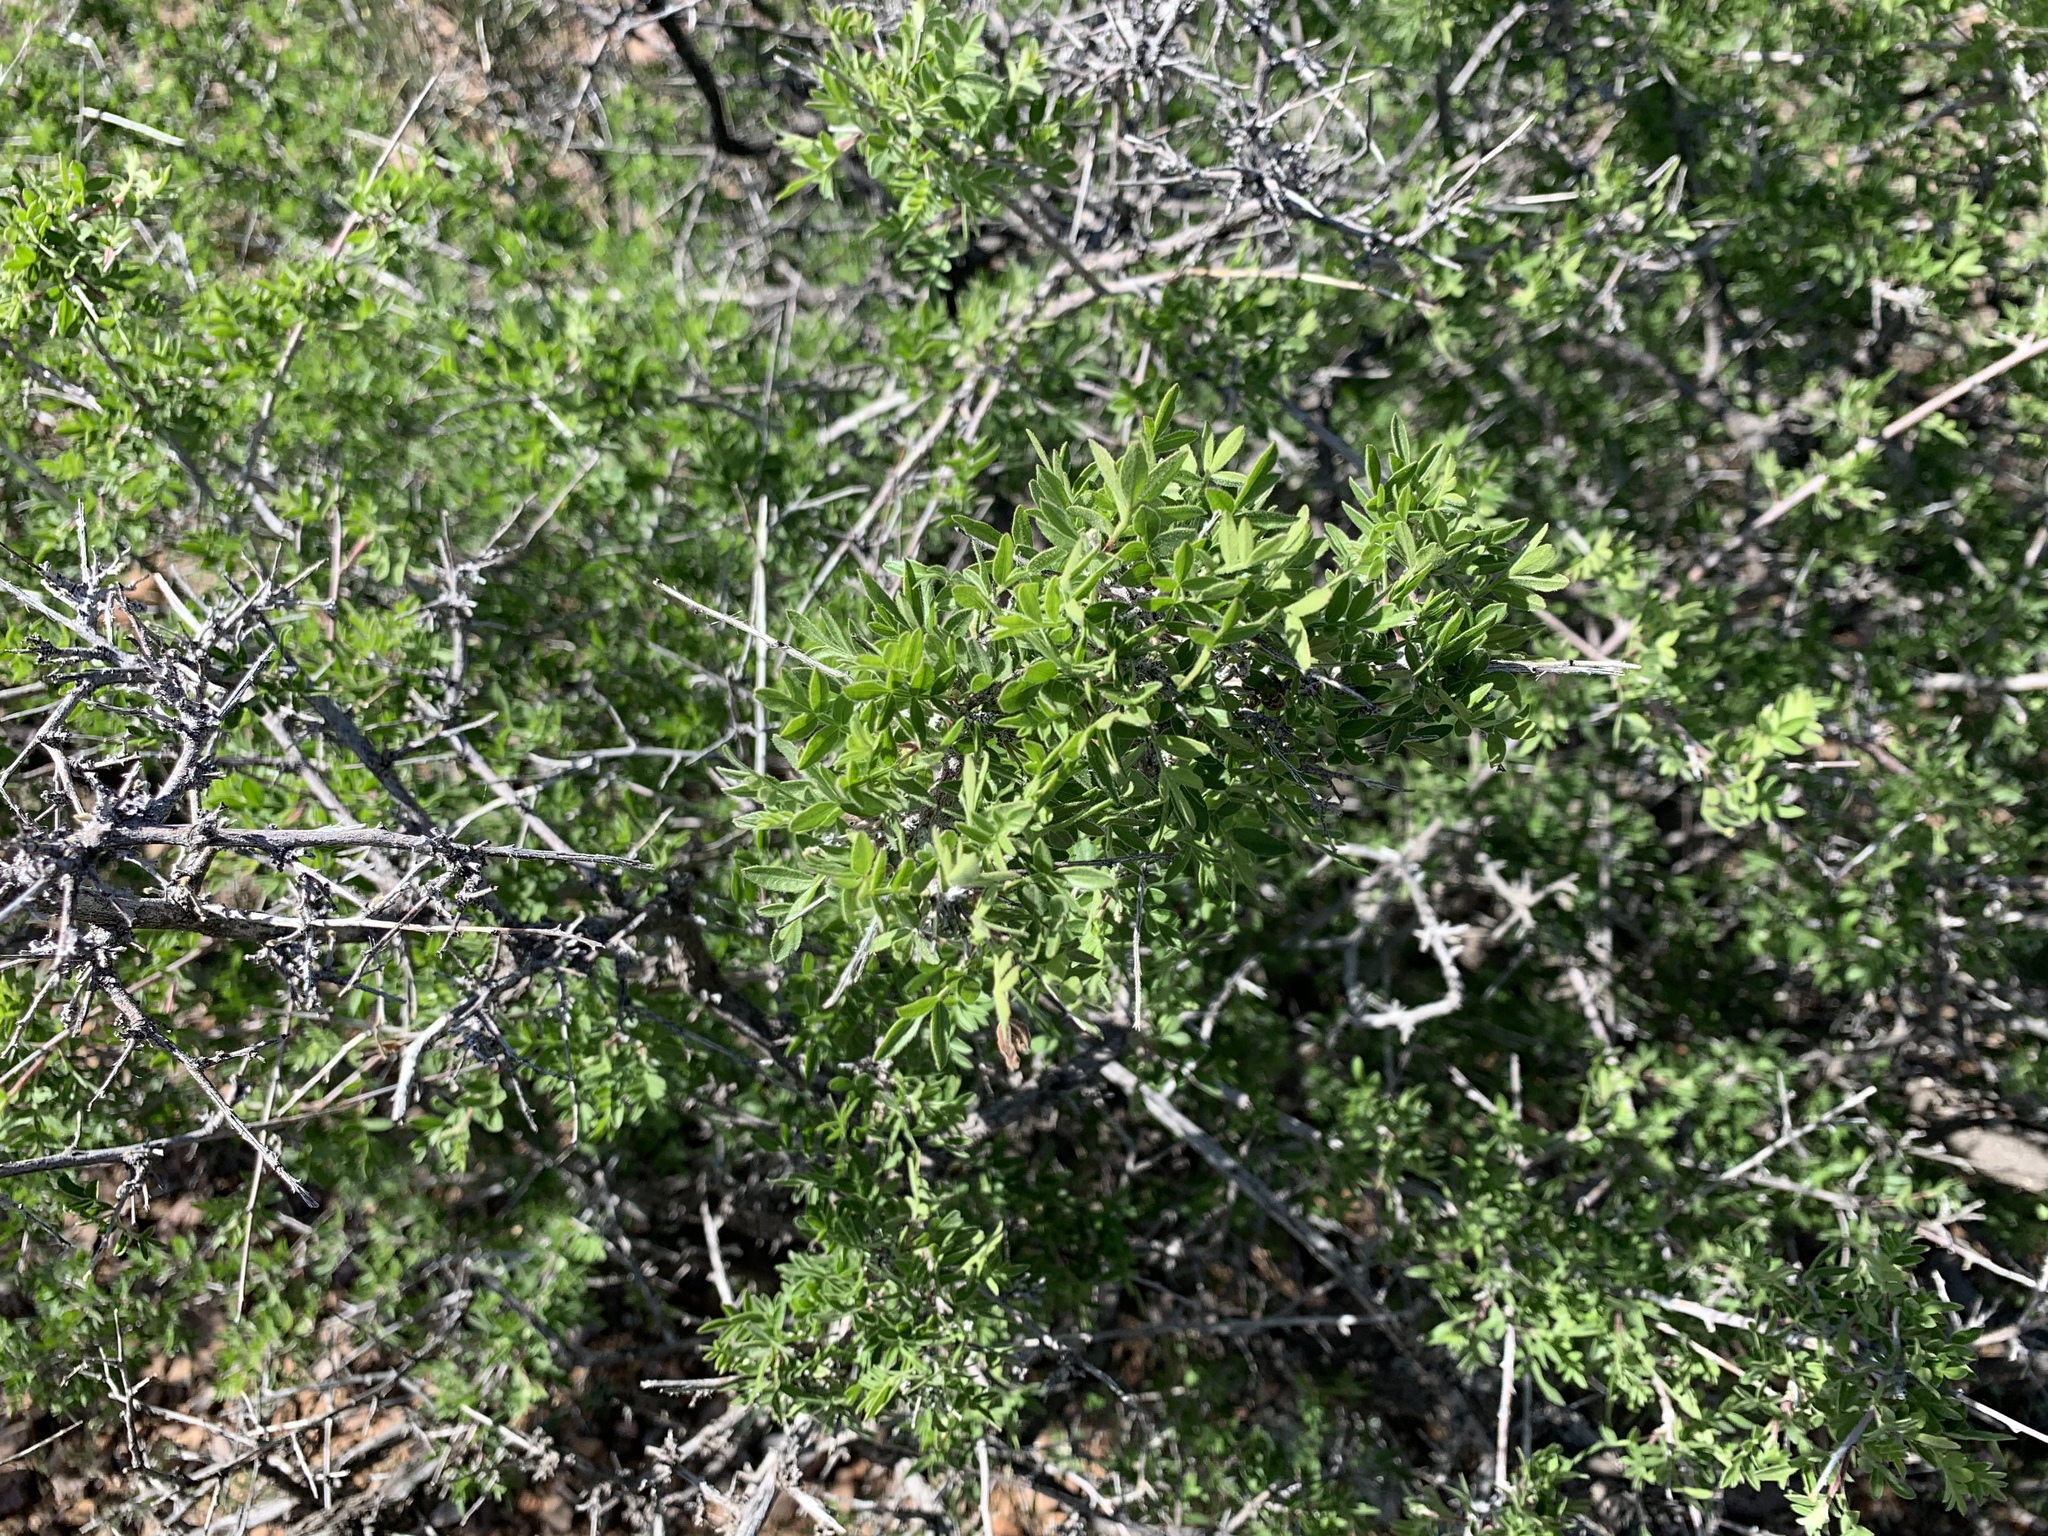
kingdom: Plantae
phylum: Tracheophyta
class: Magnoliopsida
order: Sapindales
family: Anacardiaceae
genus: Rhus
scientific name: Rhus microphylla
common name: Desert sumac
